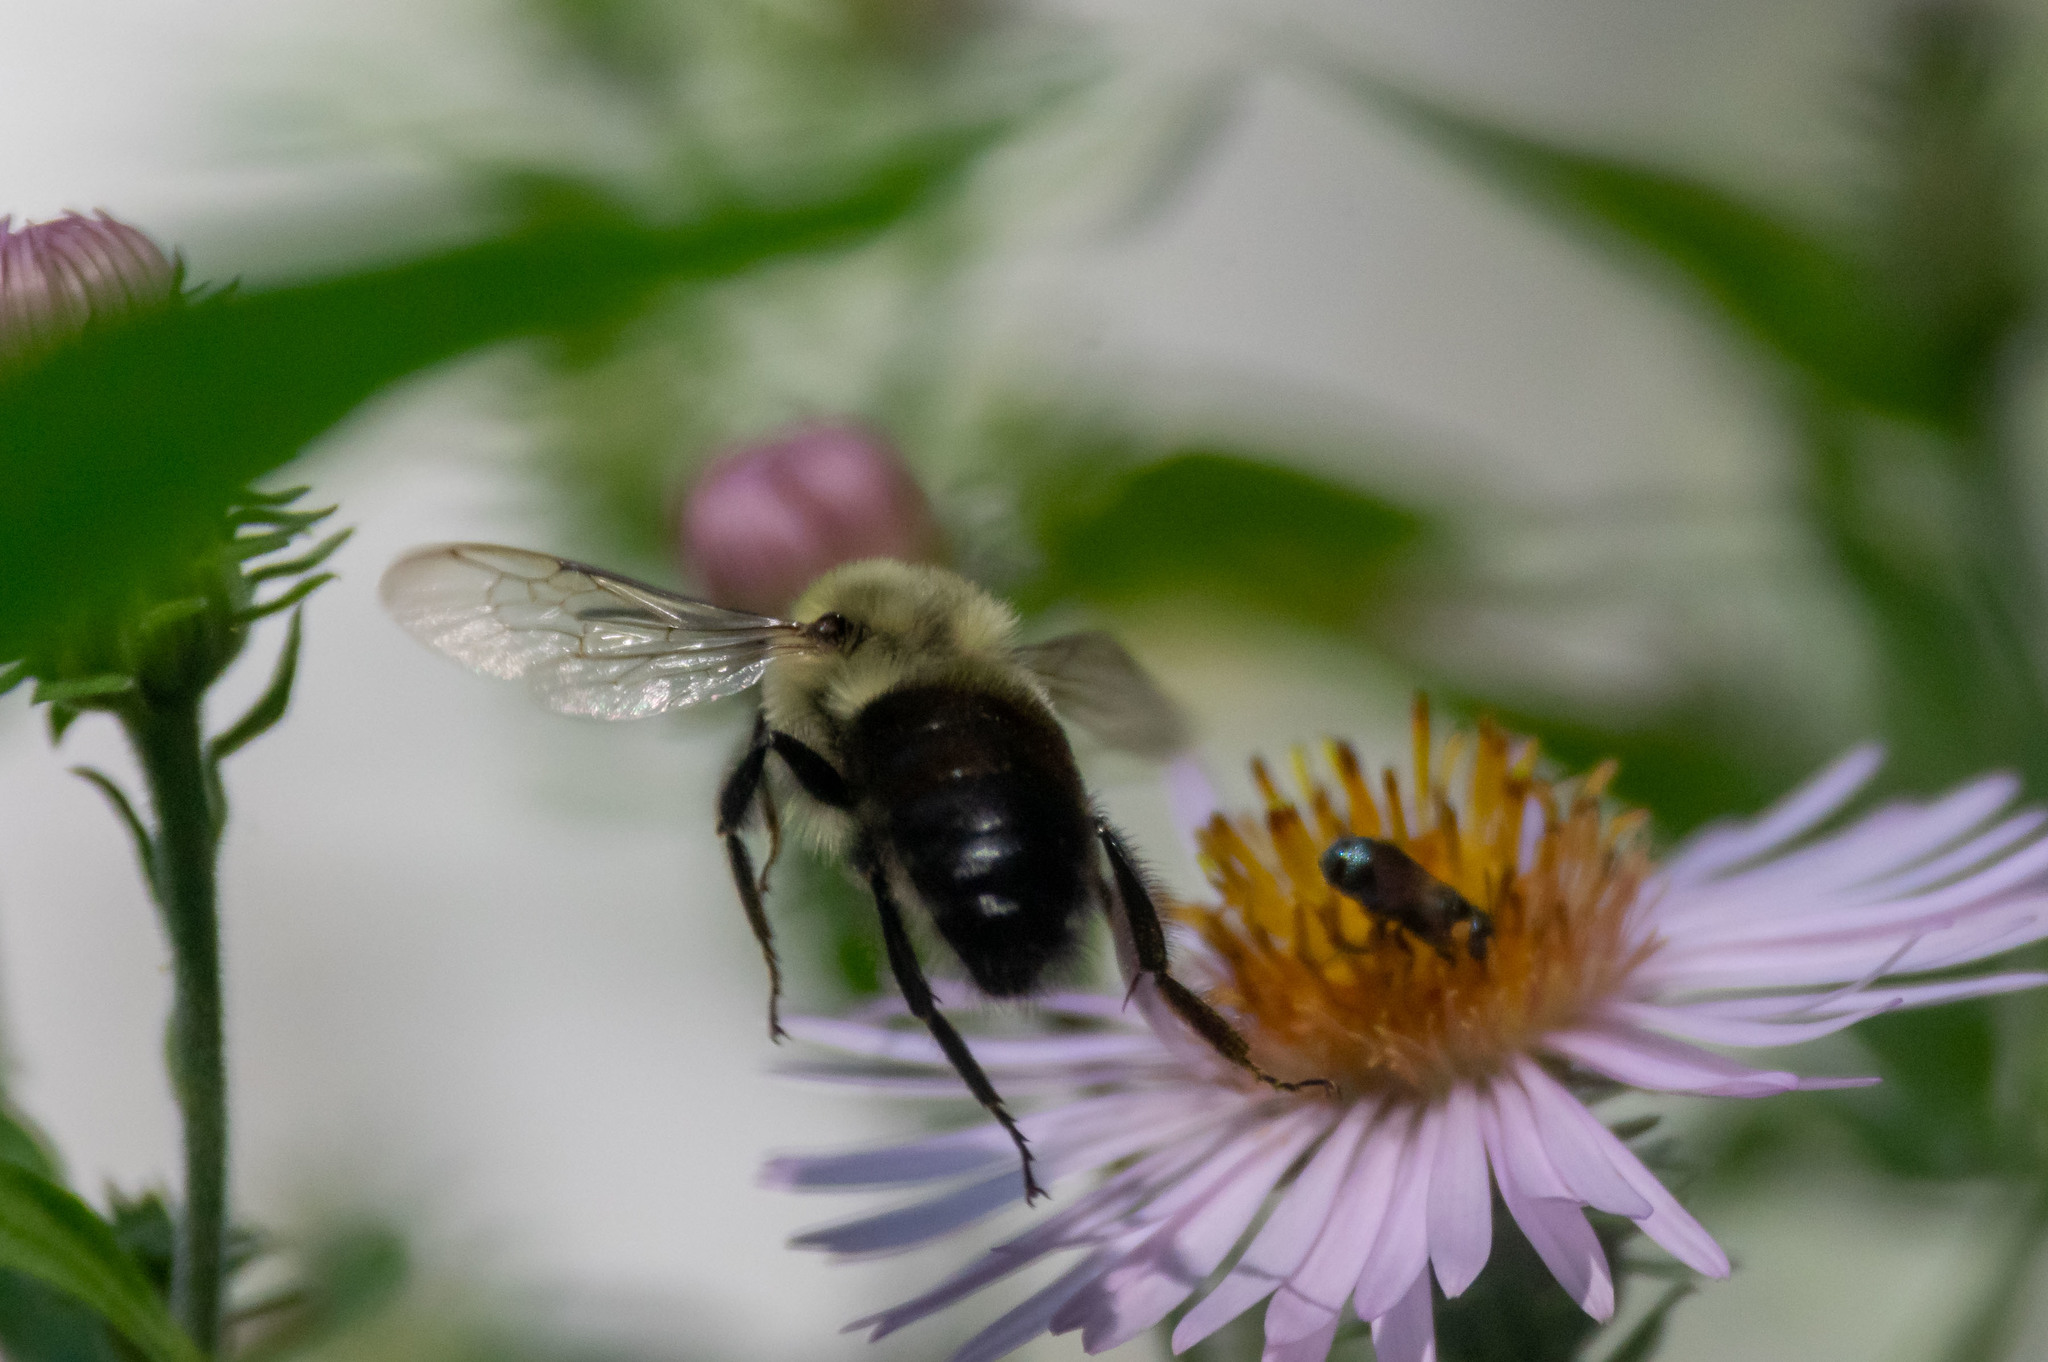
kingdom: Animalia
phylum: Arthropoda
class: Insecta
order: Hymenoptera
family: Apidae
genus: Bombus
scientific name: Bombus impatiens
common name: Common eastern bumble bee
